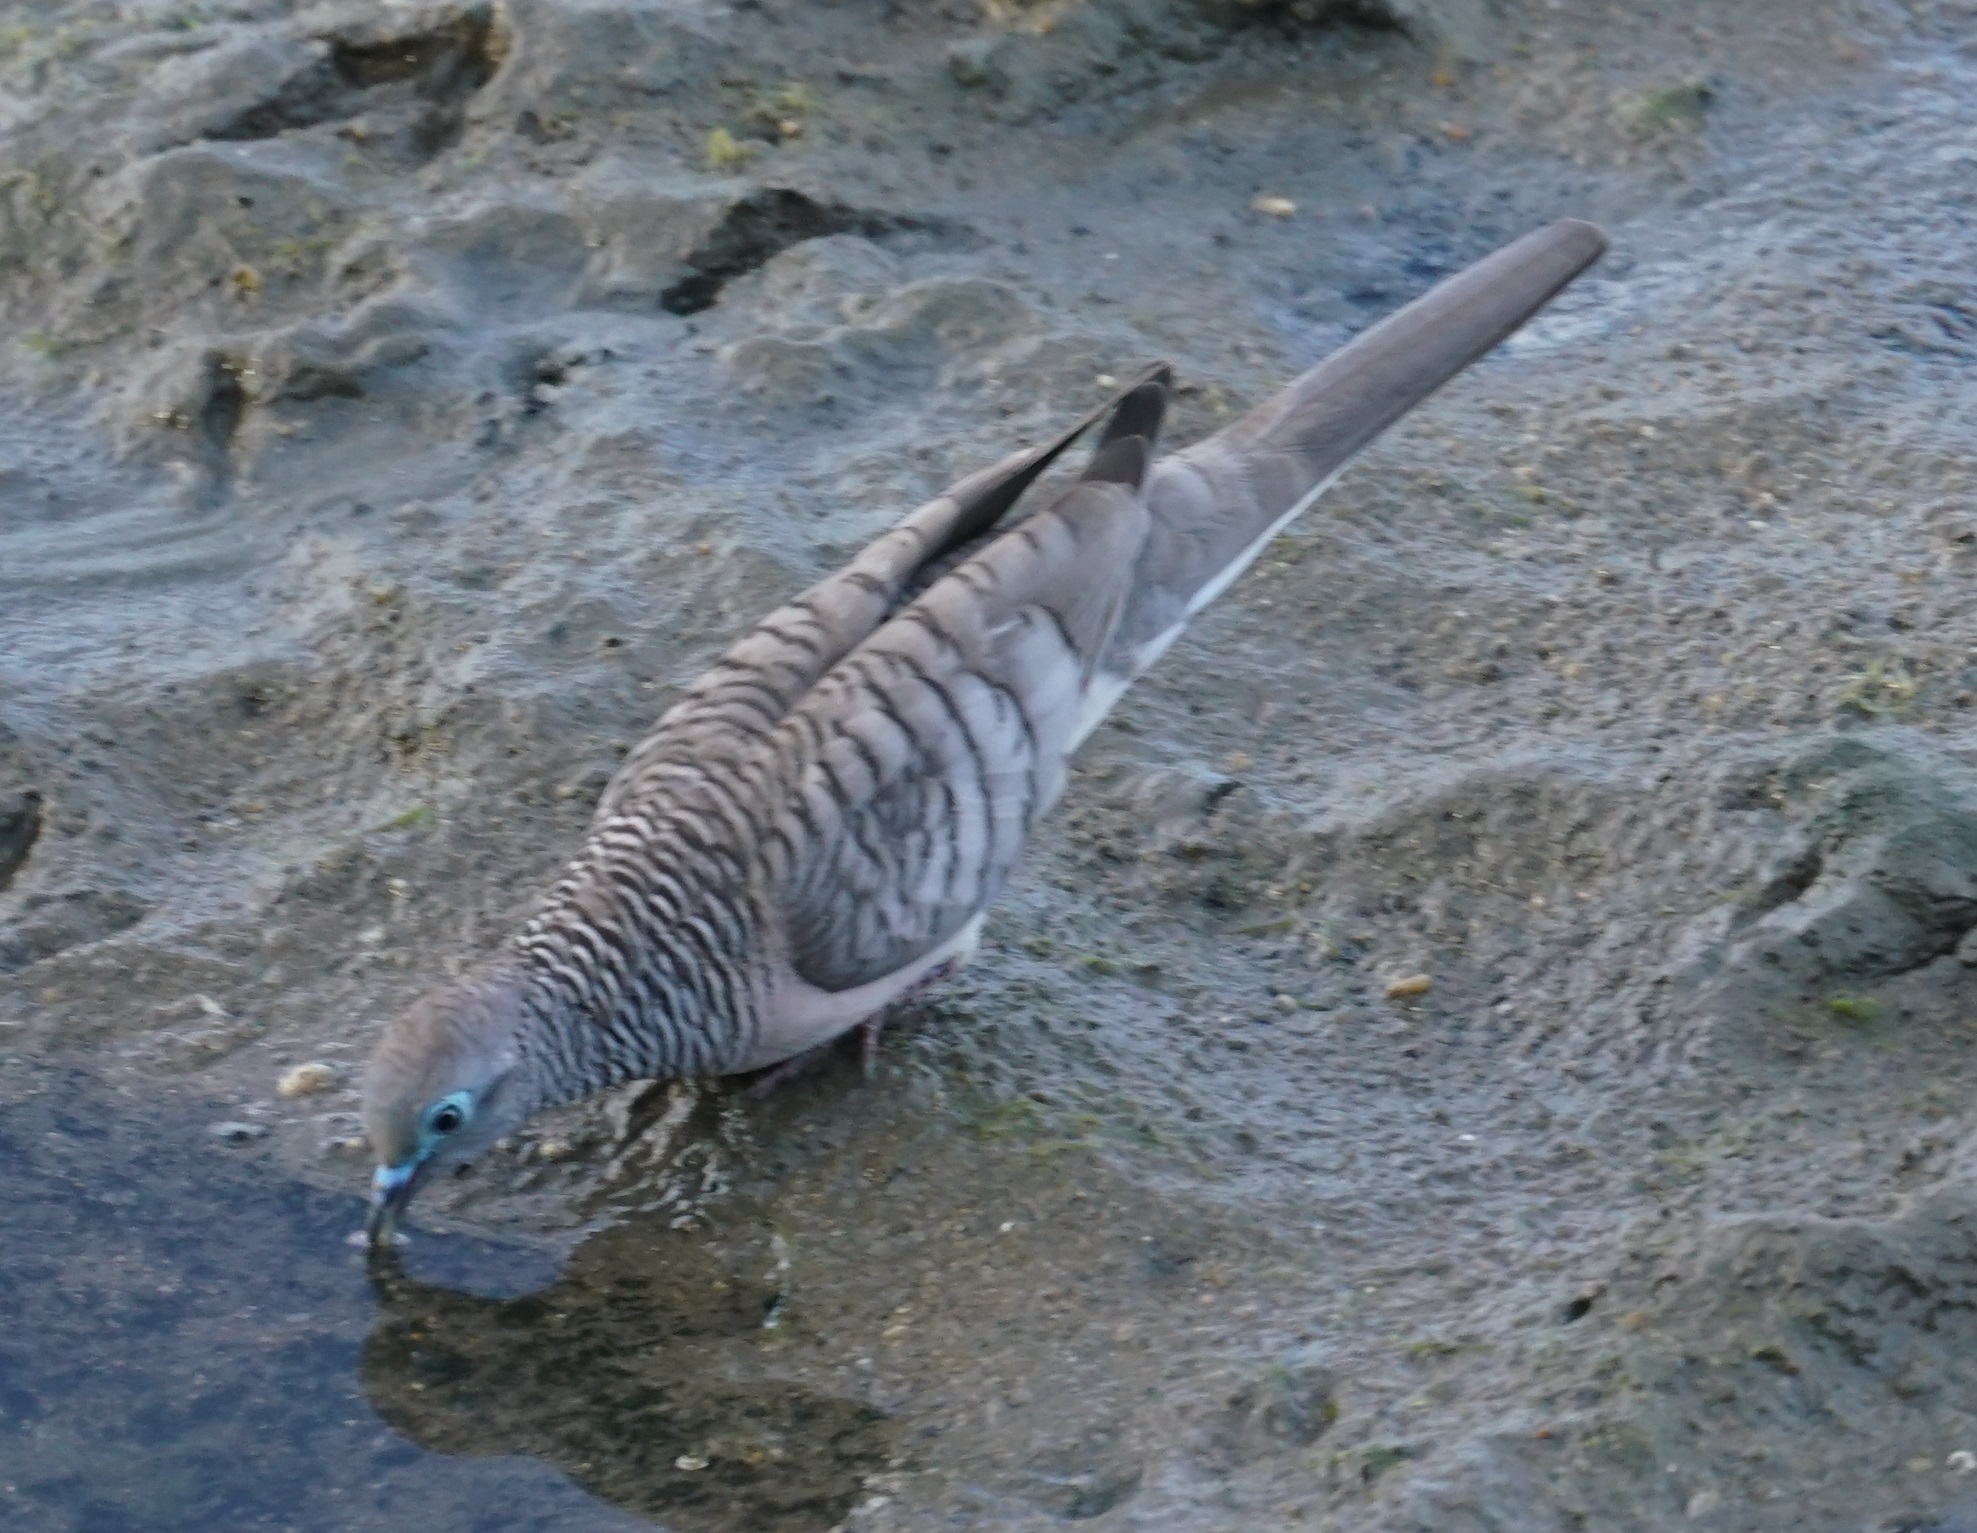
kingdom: Animalia
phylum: Chordata
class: Aves
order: Columbiformes
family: Columbidae
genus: Geopelia
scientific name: Geopelia placida
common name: Peaceful dove
